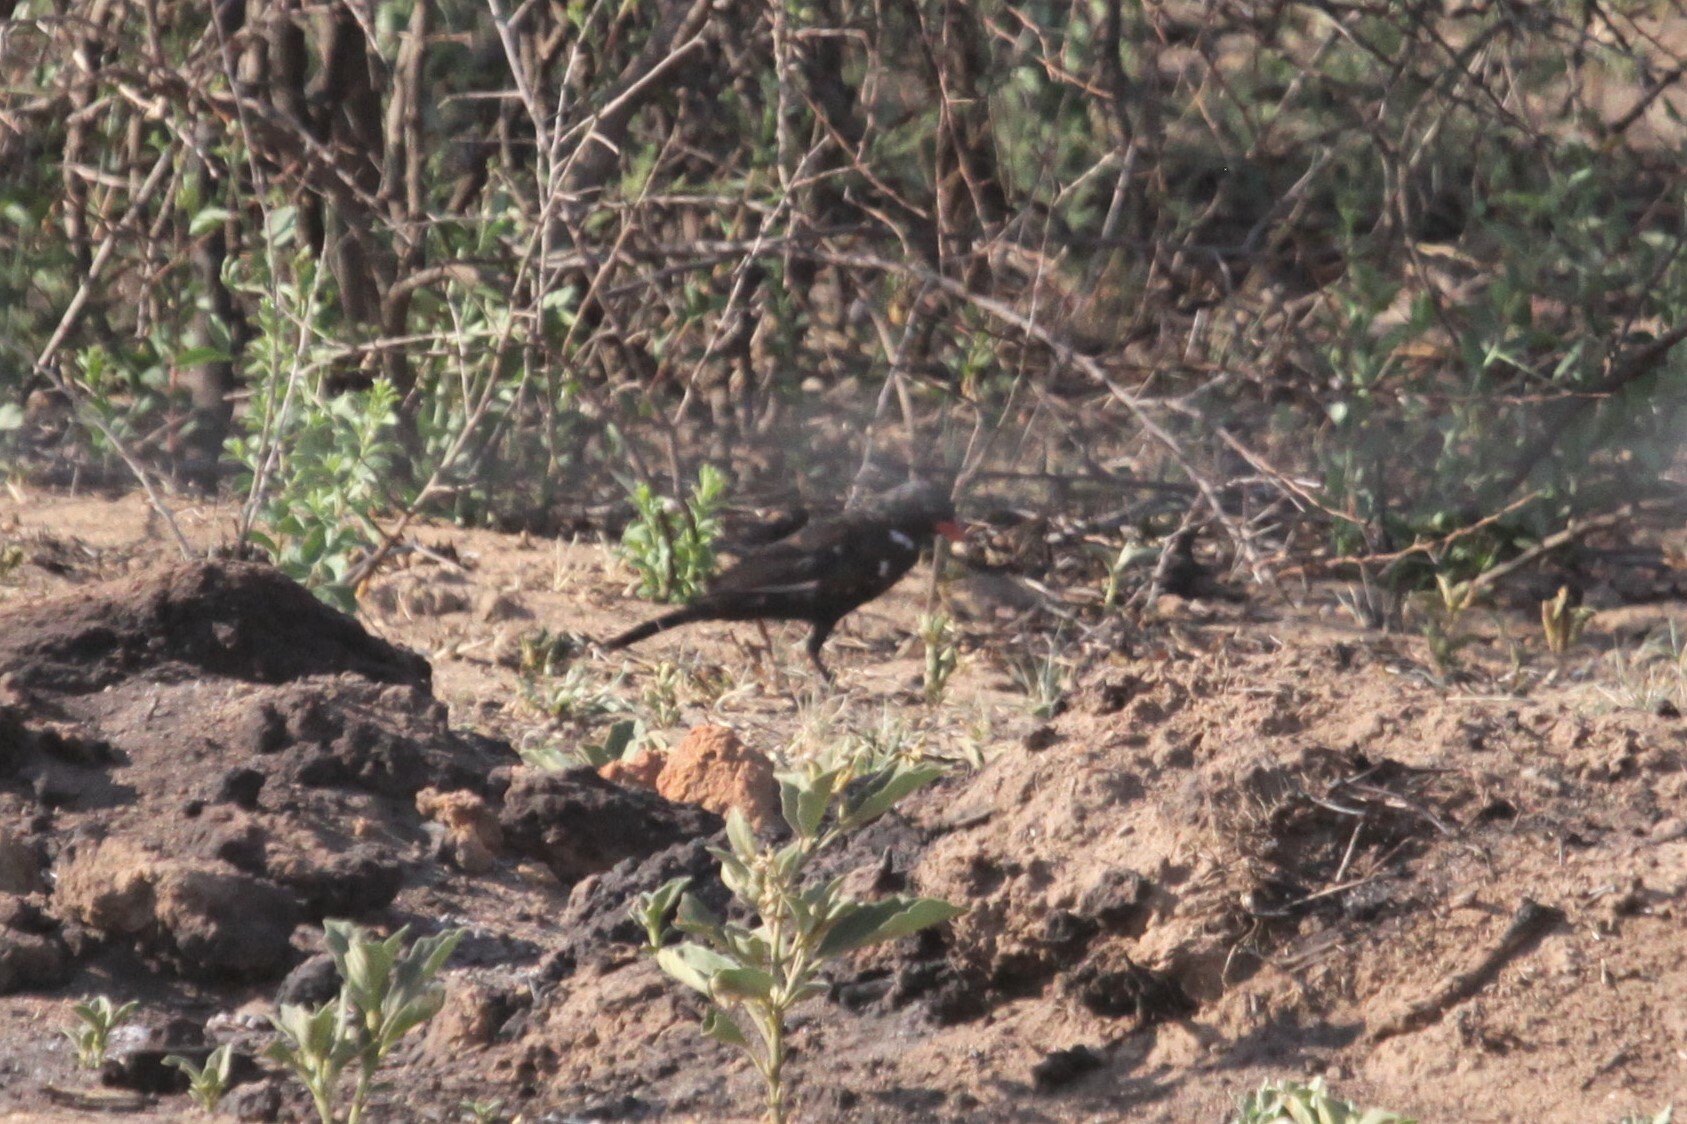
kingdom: Animalia
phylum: Chordata
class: Aves
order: Passeriformes
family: Ploceidae
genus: Bubalornis
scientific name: Bubalornis niger
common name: Red-billed buffalo weaver
